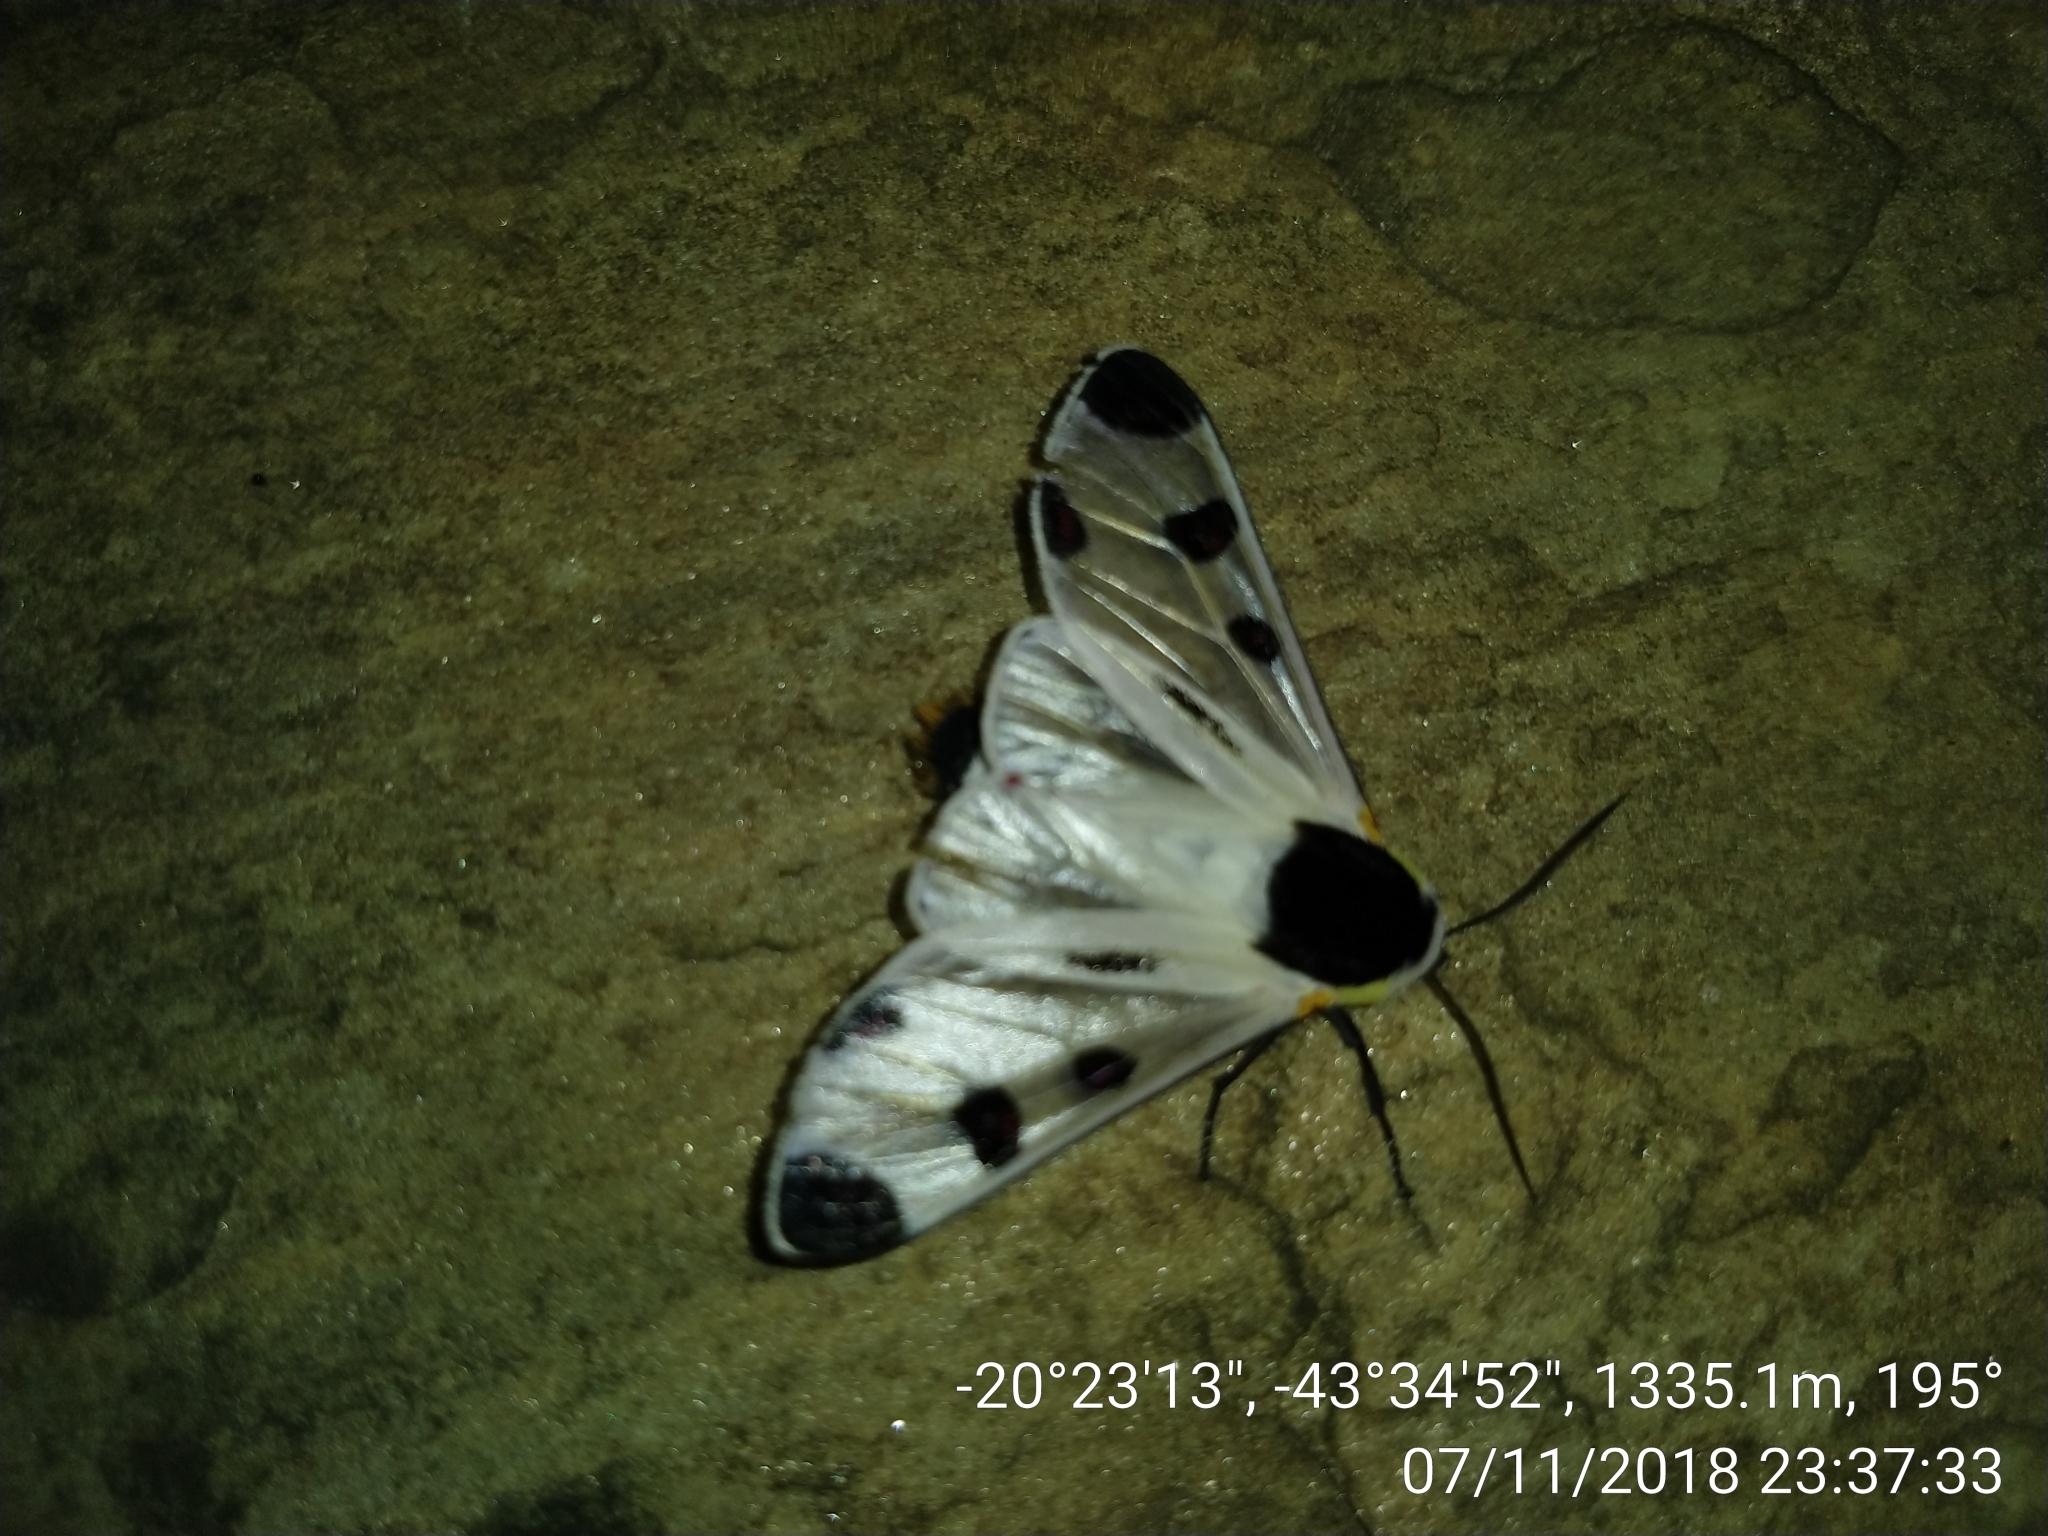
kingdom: Animalia
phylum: Arthropoda
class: Insecta
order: Lepidoptera
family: Erebidae
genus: Dysschema
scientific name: Dysschema boisduvalii
